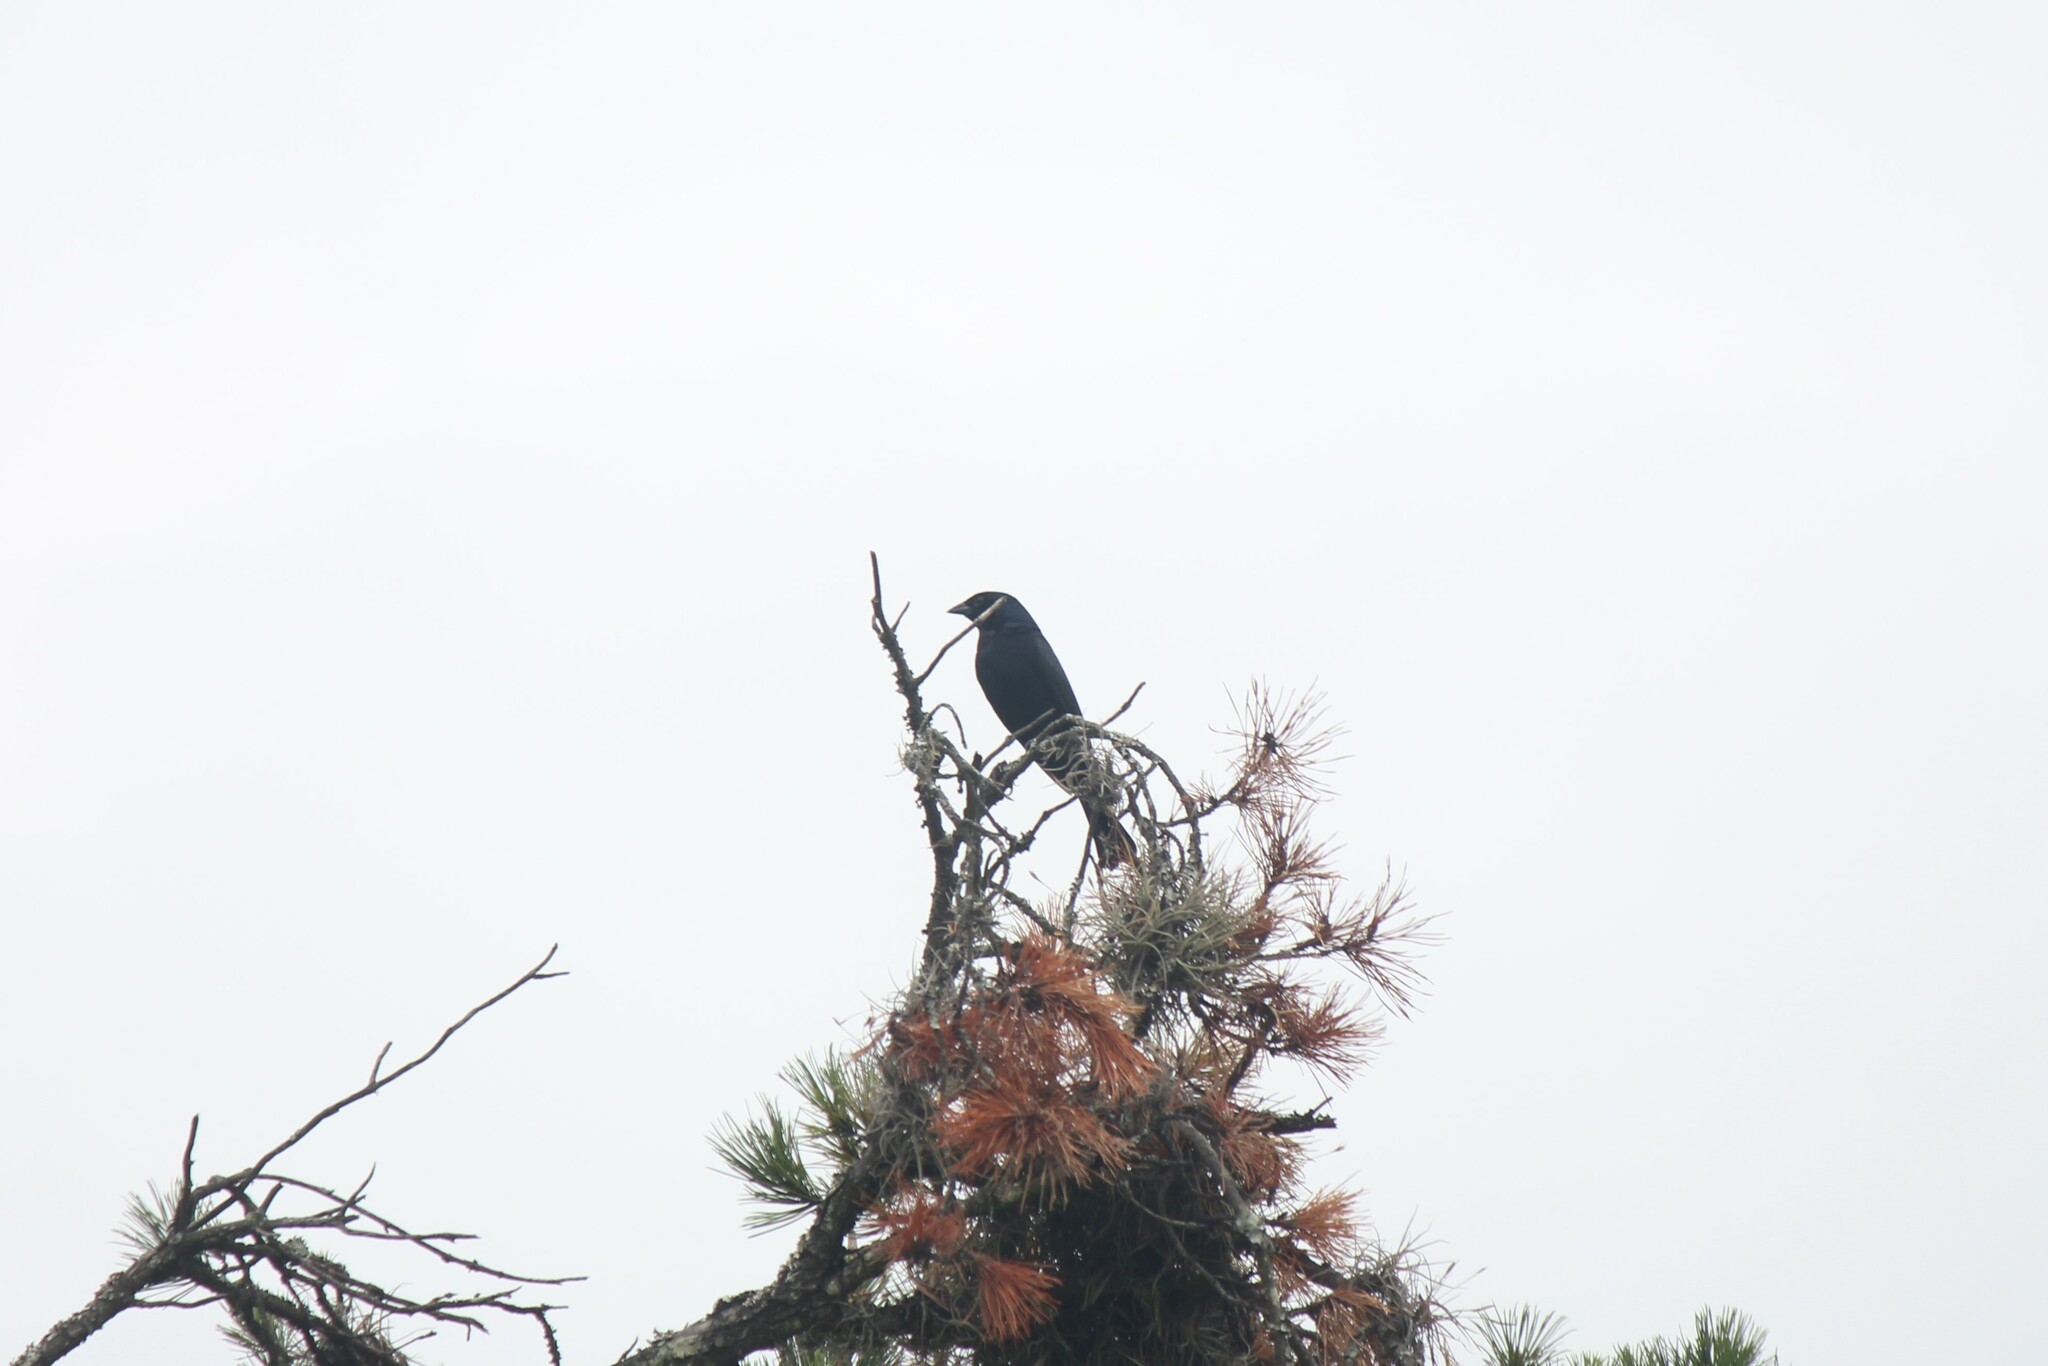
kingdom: Animalia
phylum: Chordata
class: Aves
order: Passeriformes
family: Icteridae
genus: Molothrus
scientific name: Molothrus bonariensis
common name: Shiny cowbird
